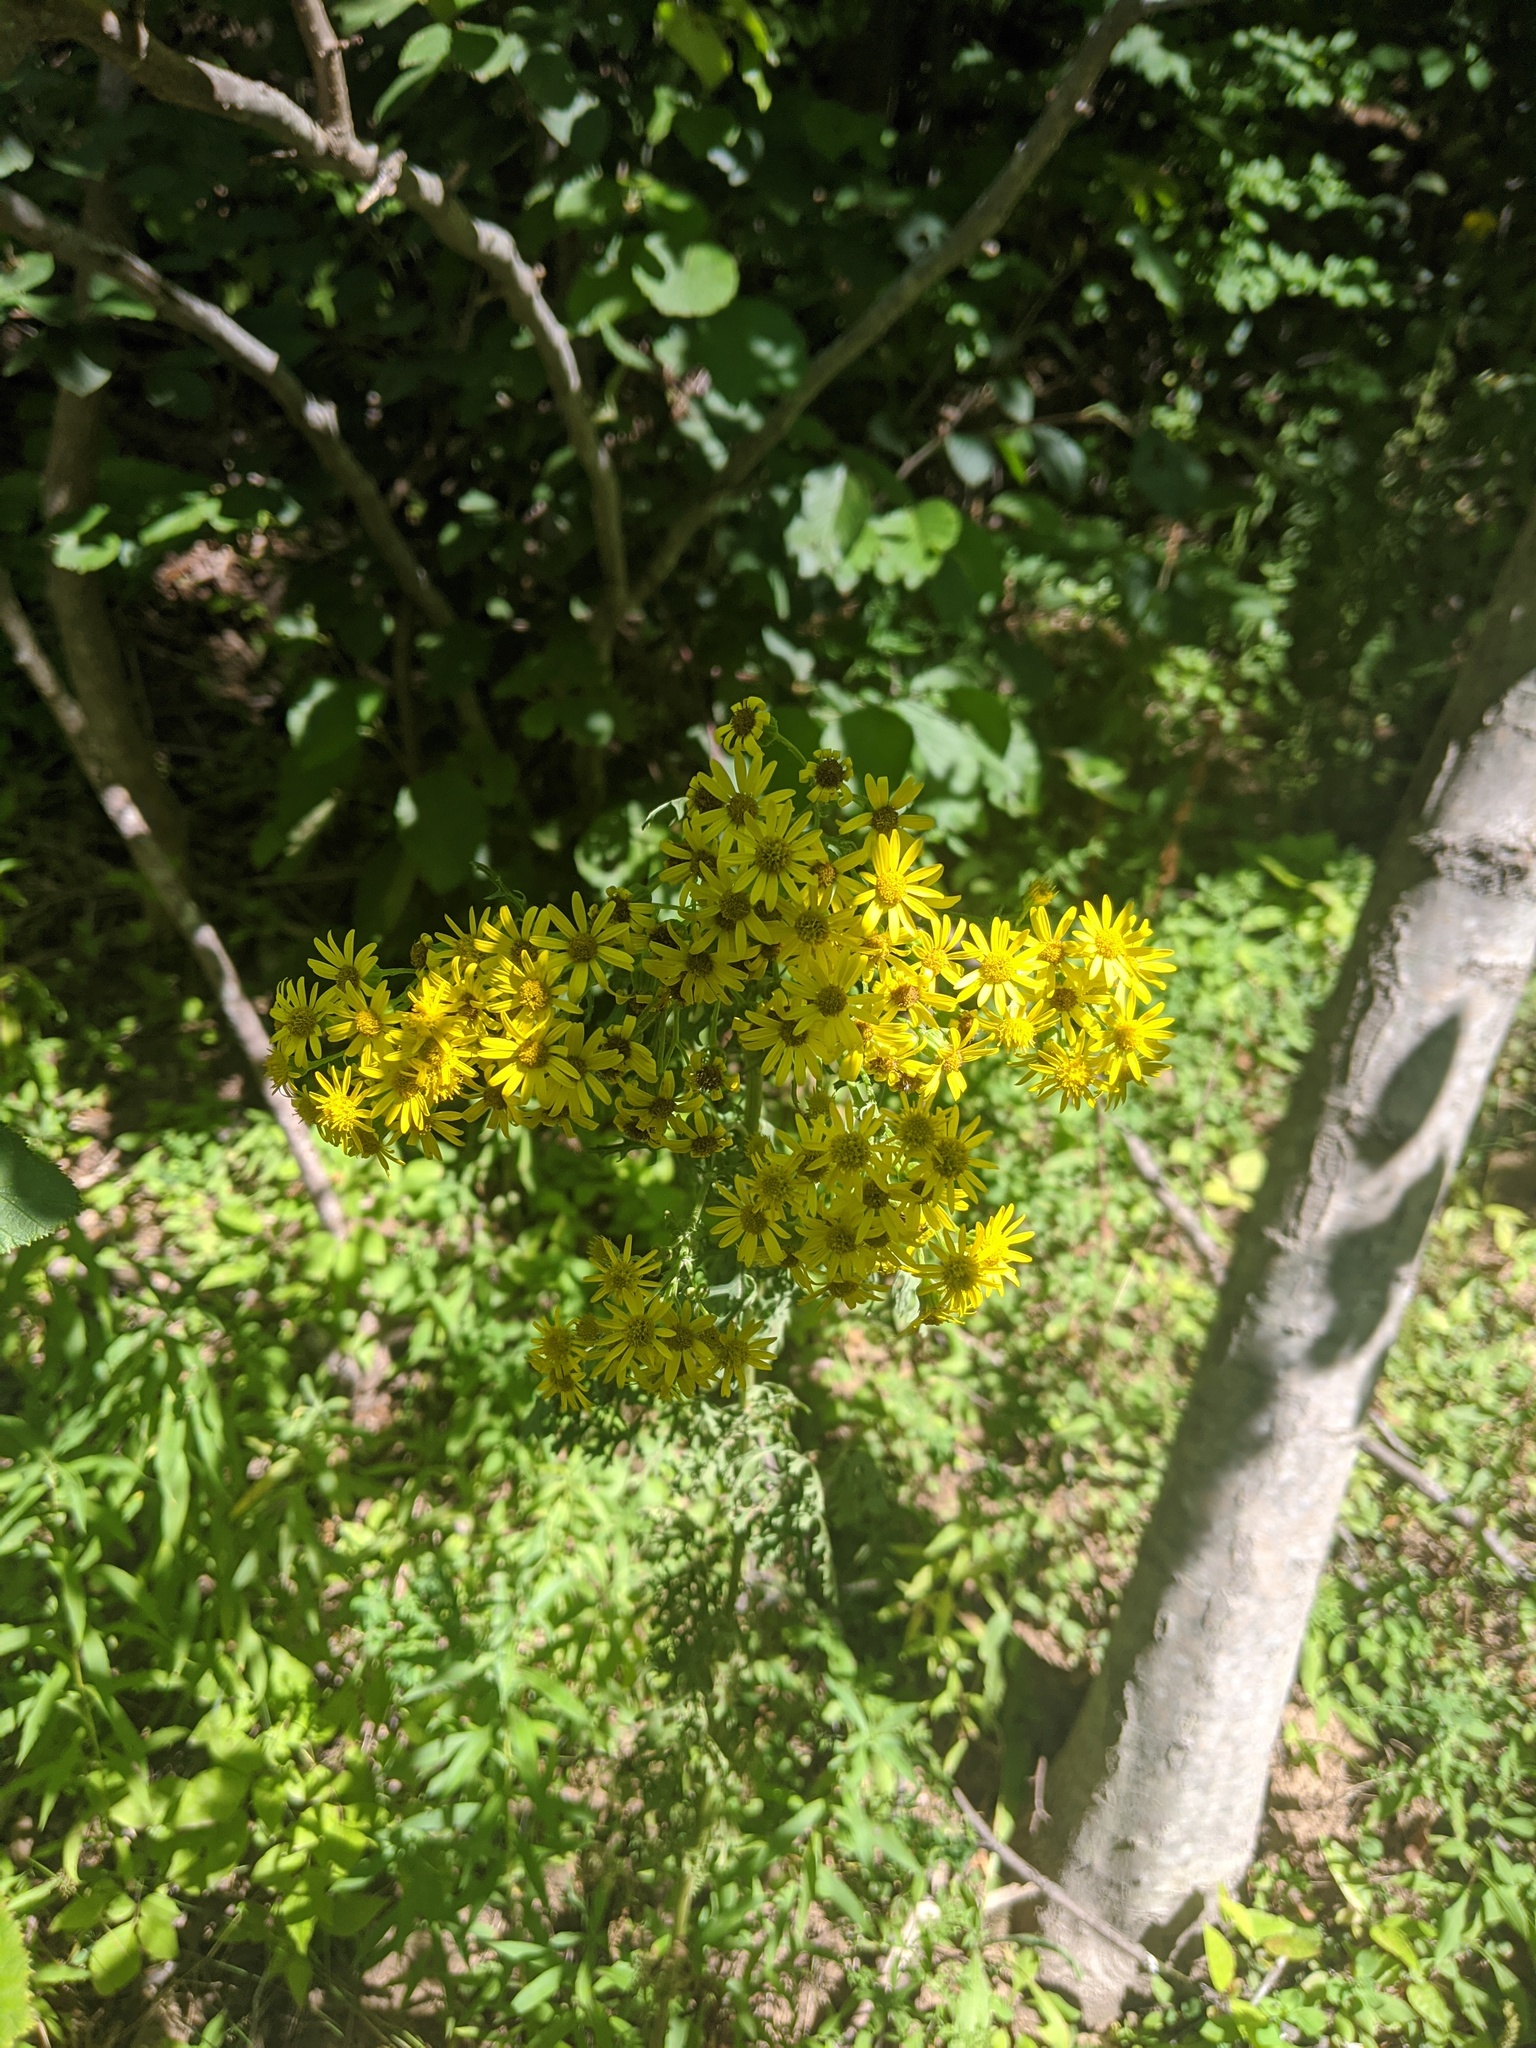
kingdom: Plantae
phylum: Tracheophyta
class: Magnoliopsida
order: Asterales
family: Asteraceae
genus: Jacobaea
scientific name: Jacobaea vulgaris
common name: Stinking willie
